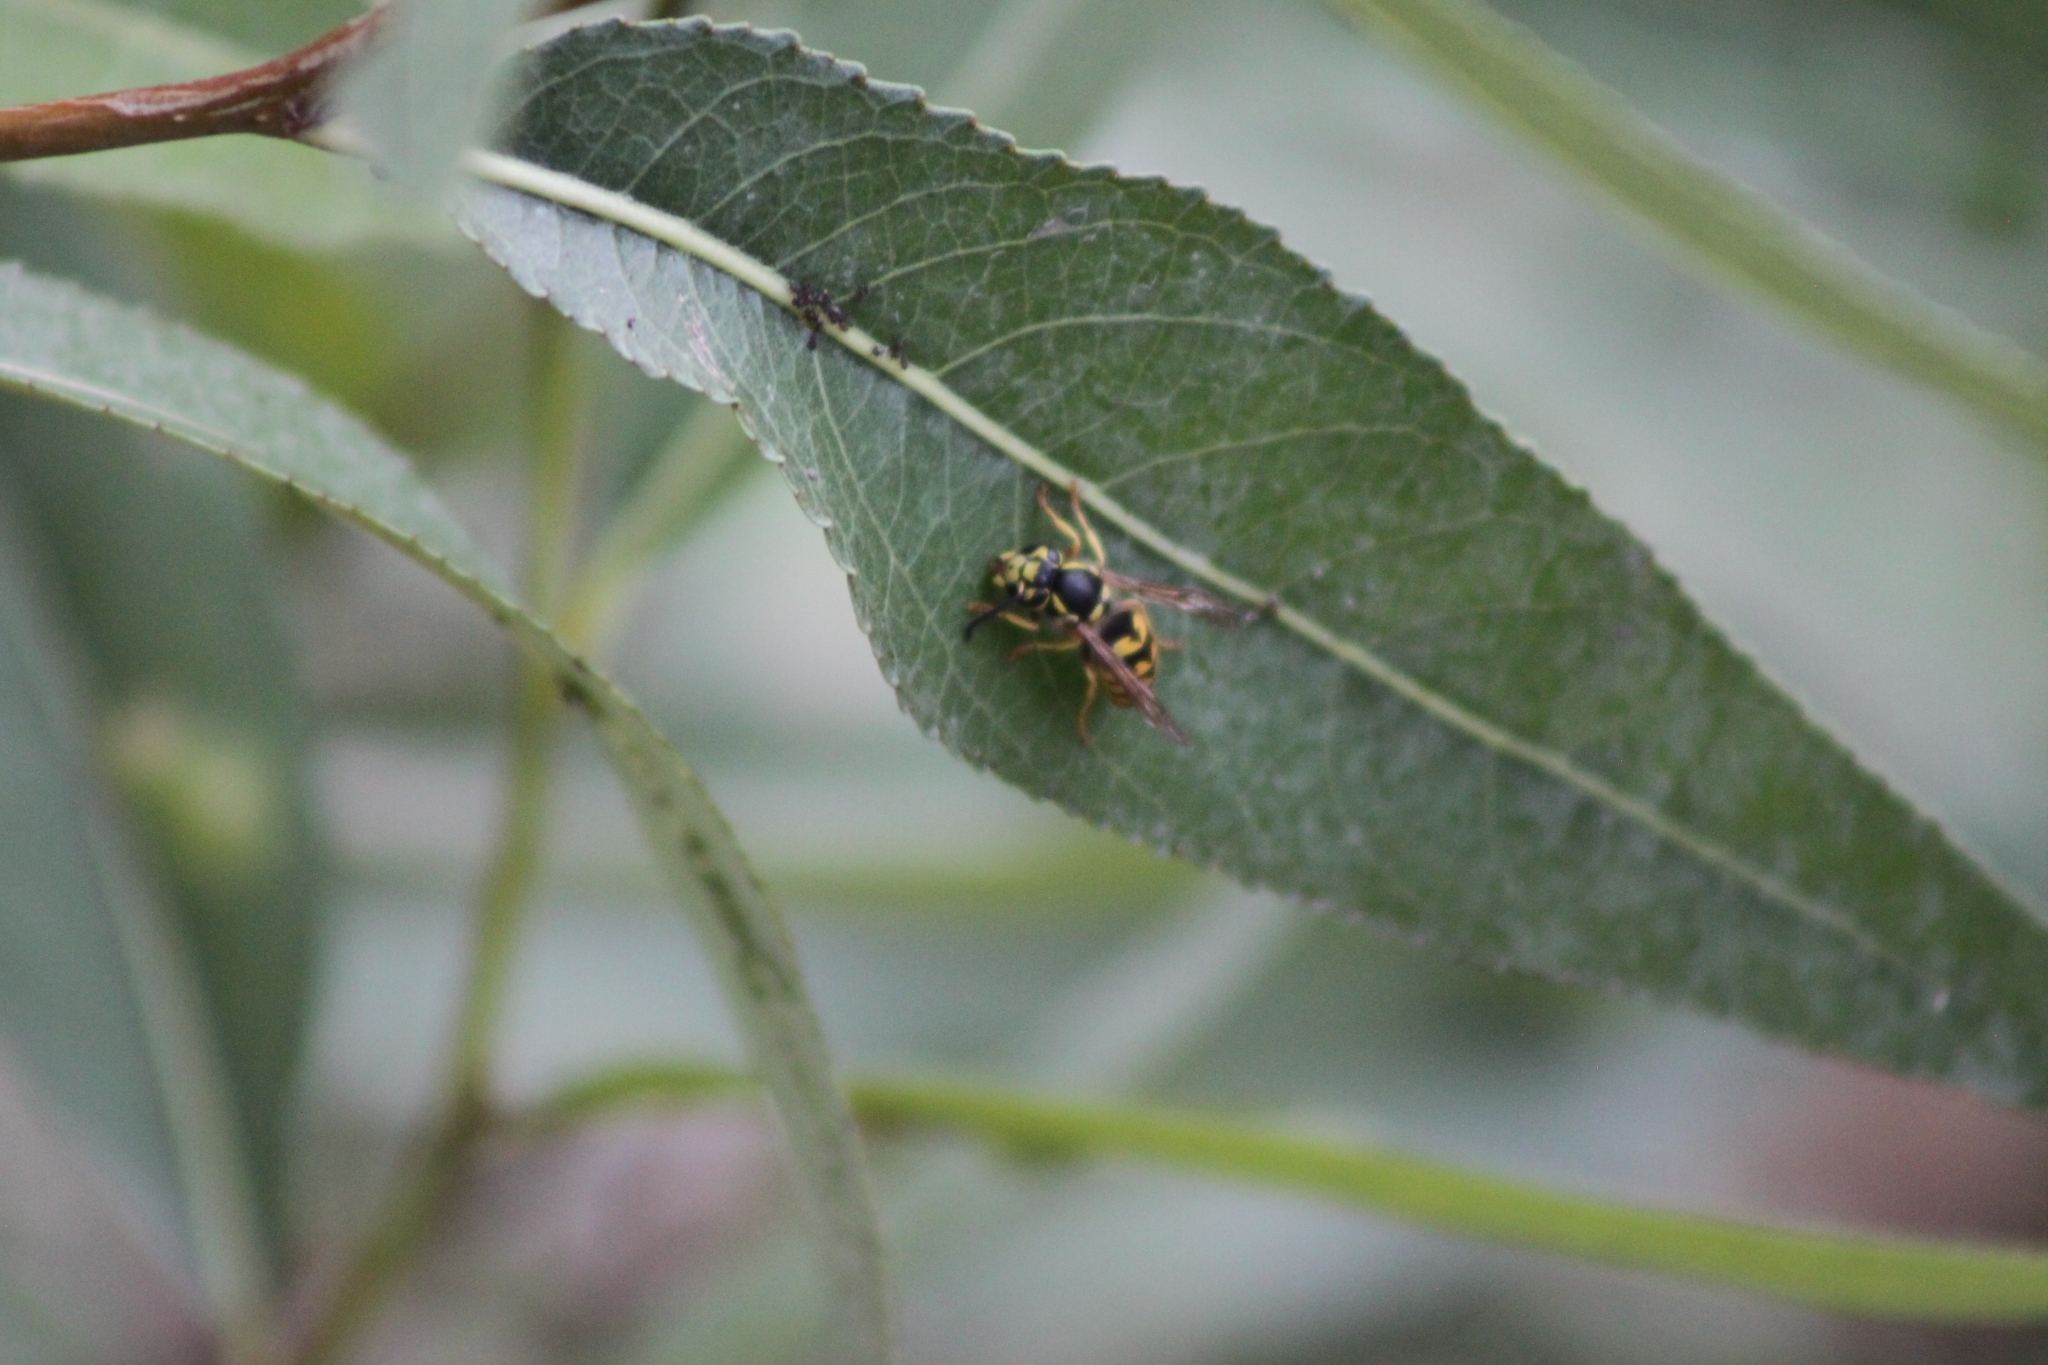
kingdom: Animalia
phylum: Arthropoda
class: Insecta
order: Hymenoptera
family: Vespidae
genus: Vespula
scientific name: Vespula pensylvanica
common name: Western yellowjacket
